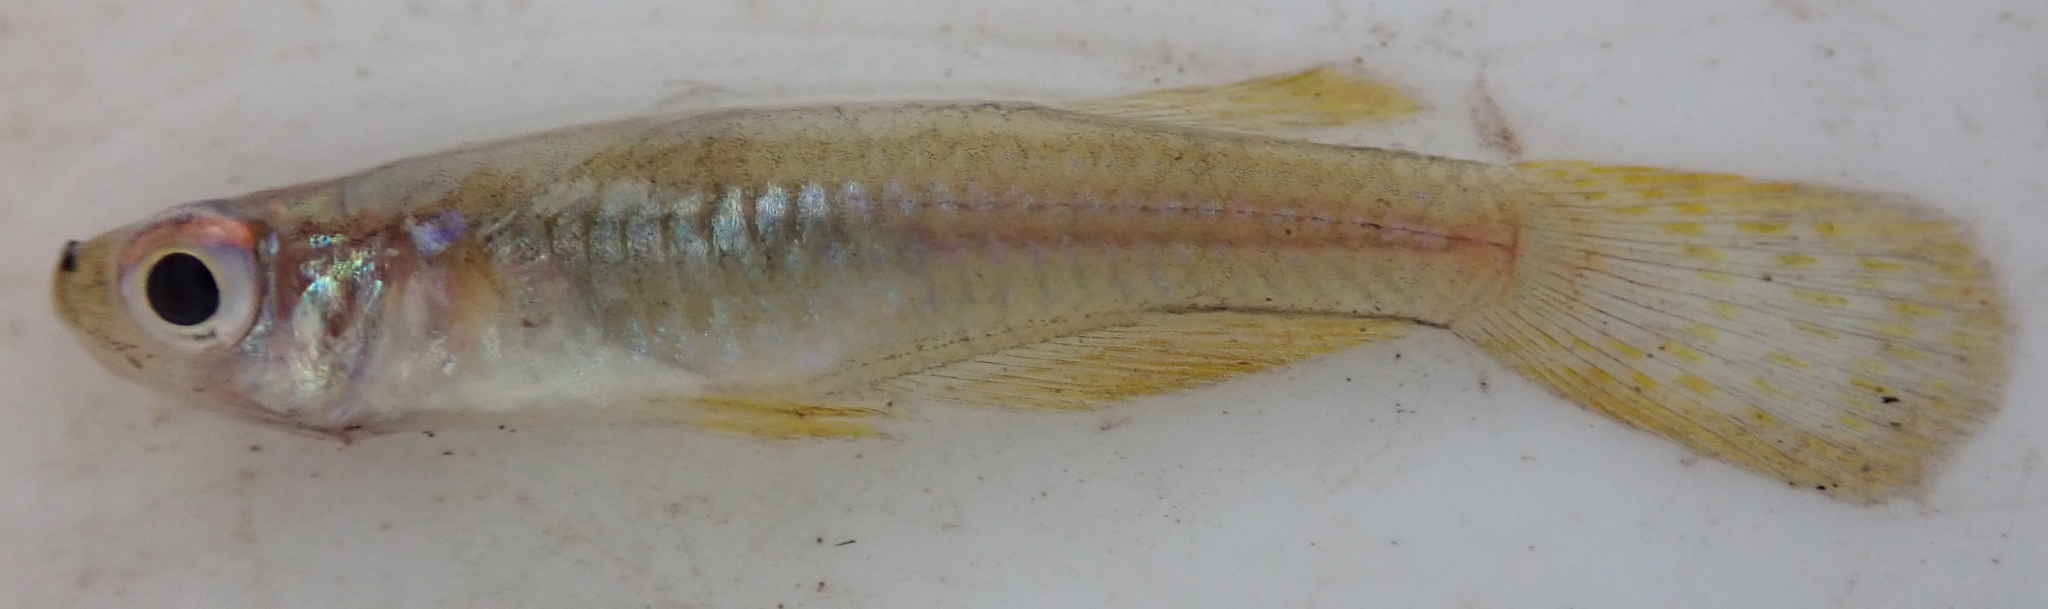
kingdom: Animalia
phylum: Chordata
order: Cyprinodontiformes
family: Poeciliidae
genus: Micropanchax
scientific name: Micropanchax johnstoni
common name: Johnston's topminnow
